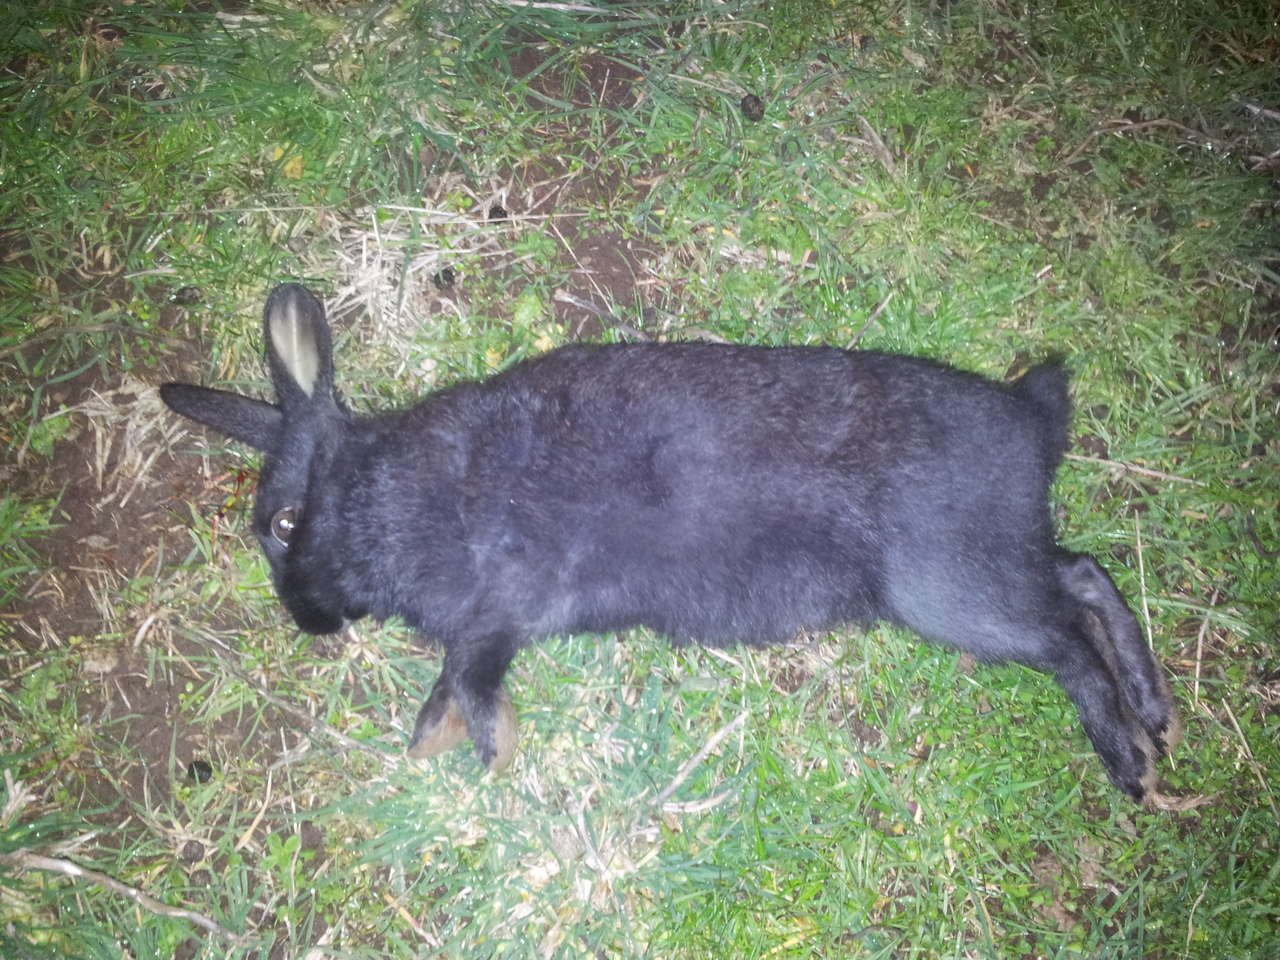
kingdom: Animalia
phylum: Chordata
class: Mammalia
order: Lagomorpha
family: Leporidae
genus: Oryctolagus
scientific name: Oryctolagus cuniculus
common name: European rabbit
